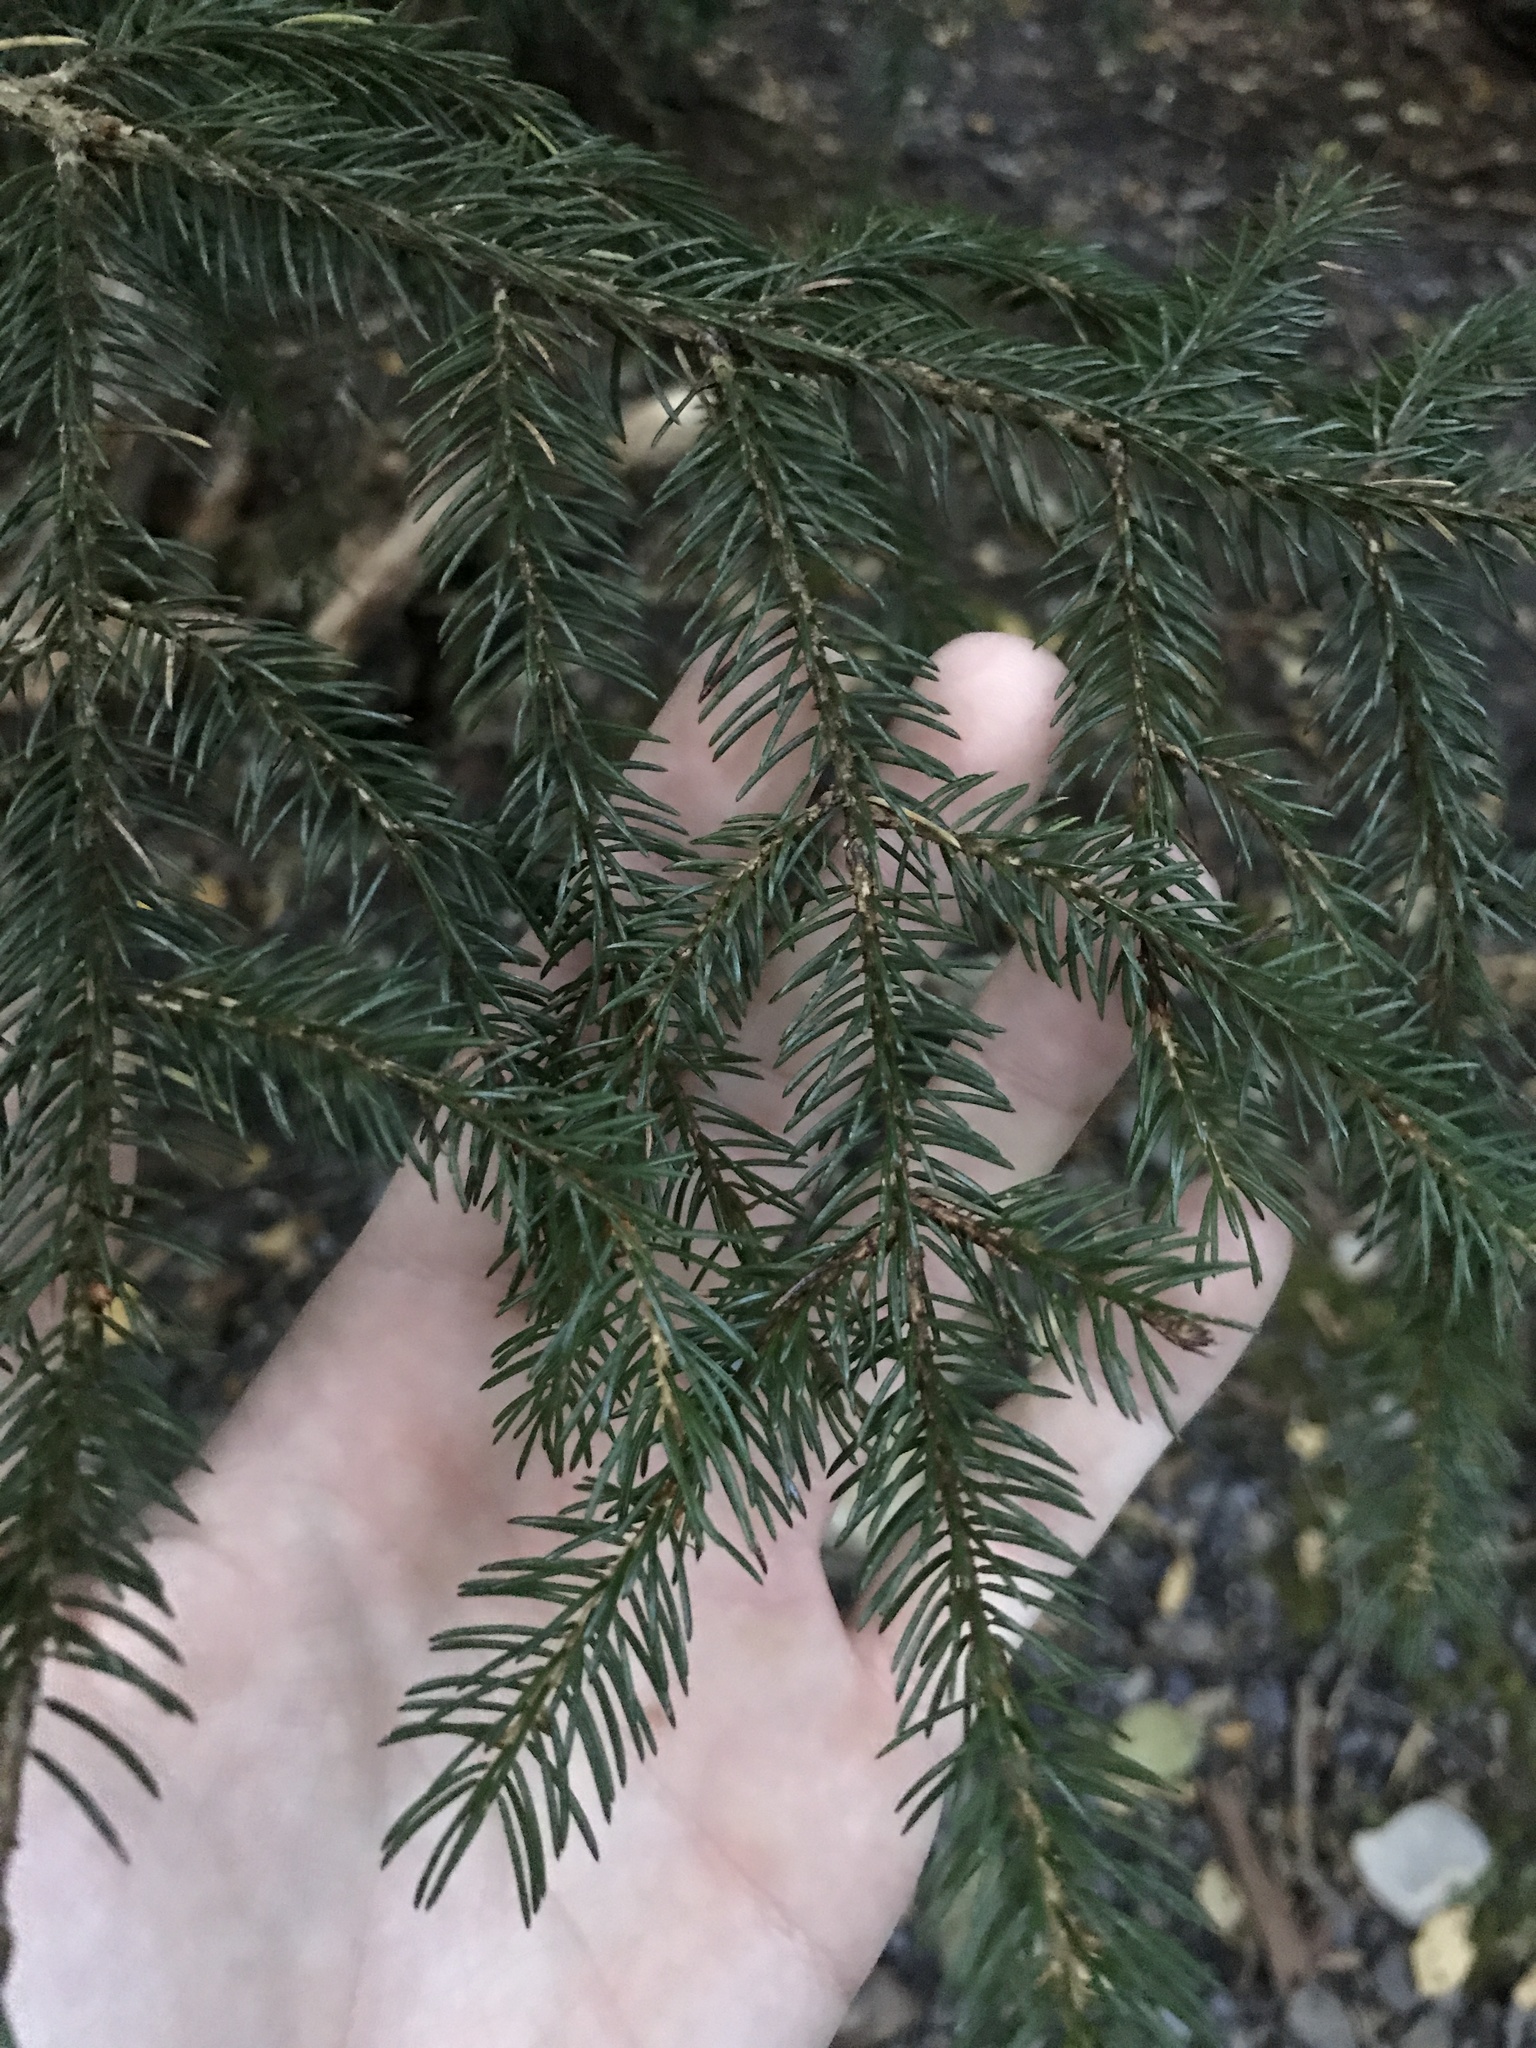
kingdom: Plantae
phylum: Tracheophyta
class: Pinopsida
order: Pinales
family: Pinaceae
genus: Picea
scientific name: Picea rubens
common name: Red spruce
